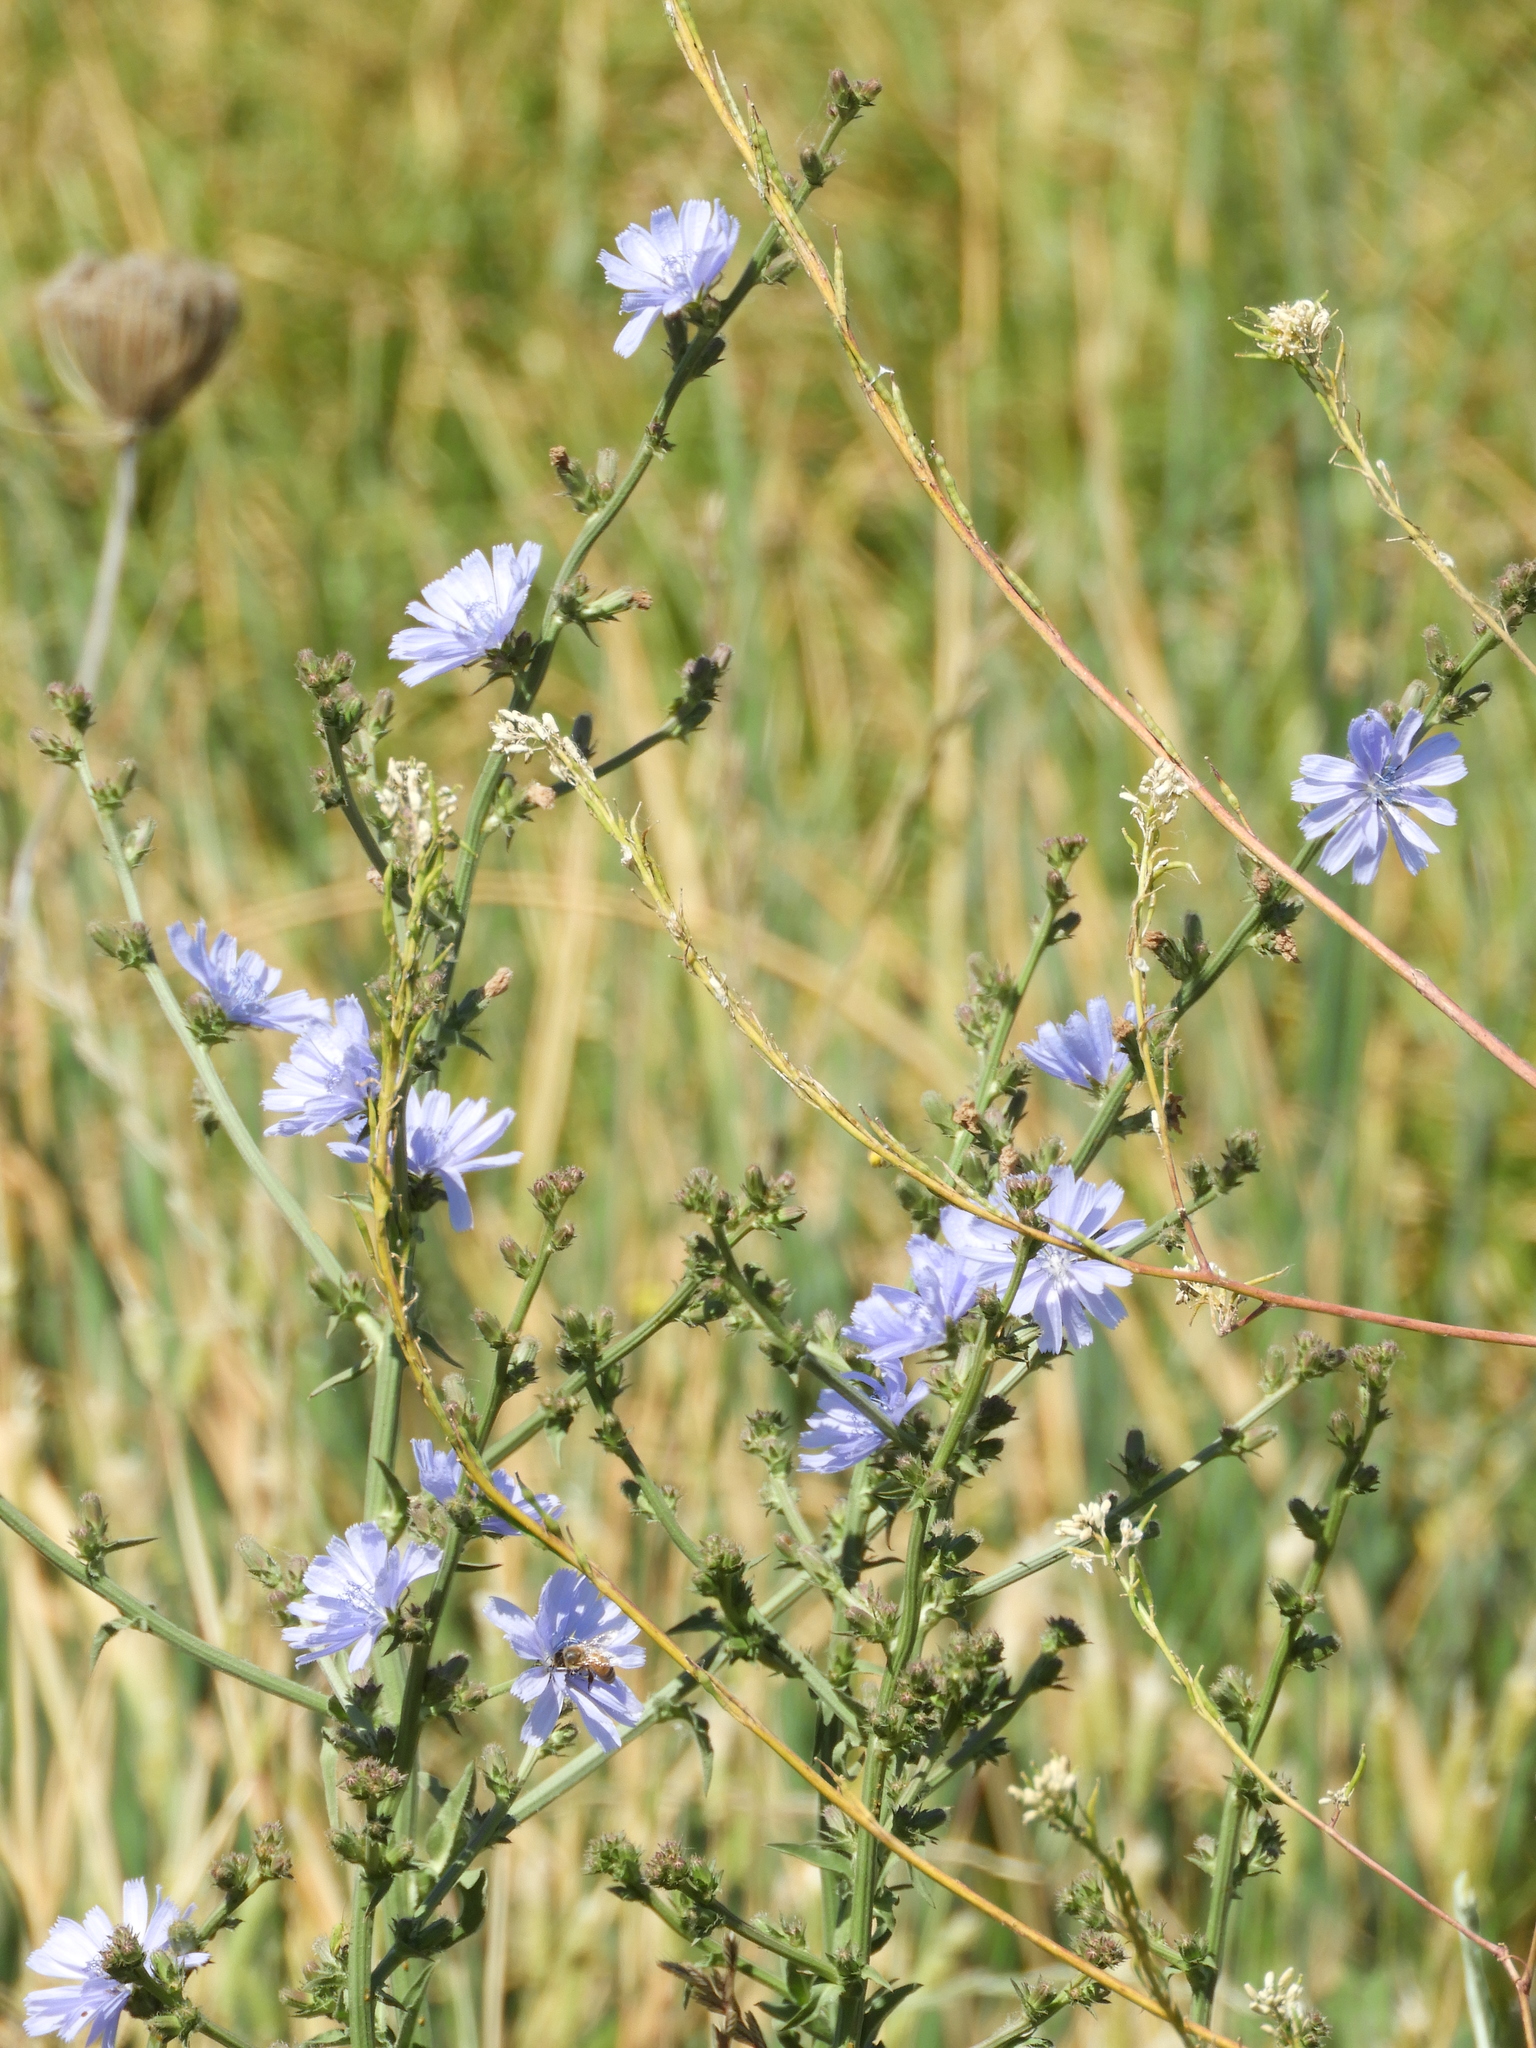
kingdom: Plantae
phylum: Tracheophyta
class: Magnoliopsida
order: Asterales
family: Asteraceae
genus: Cichorium
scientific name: Cichorium intybus
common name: Chicory
